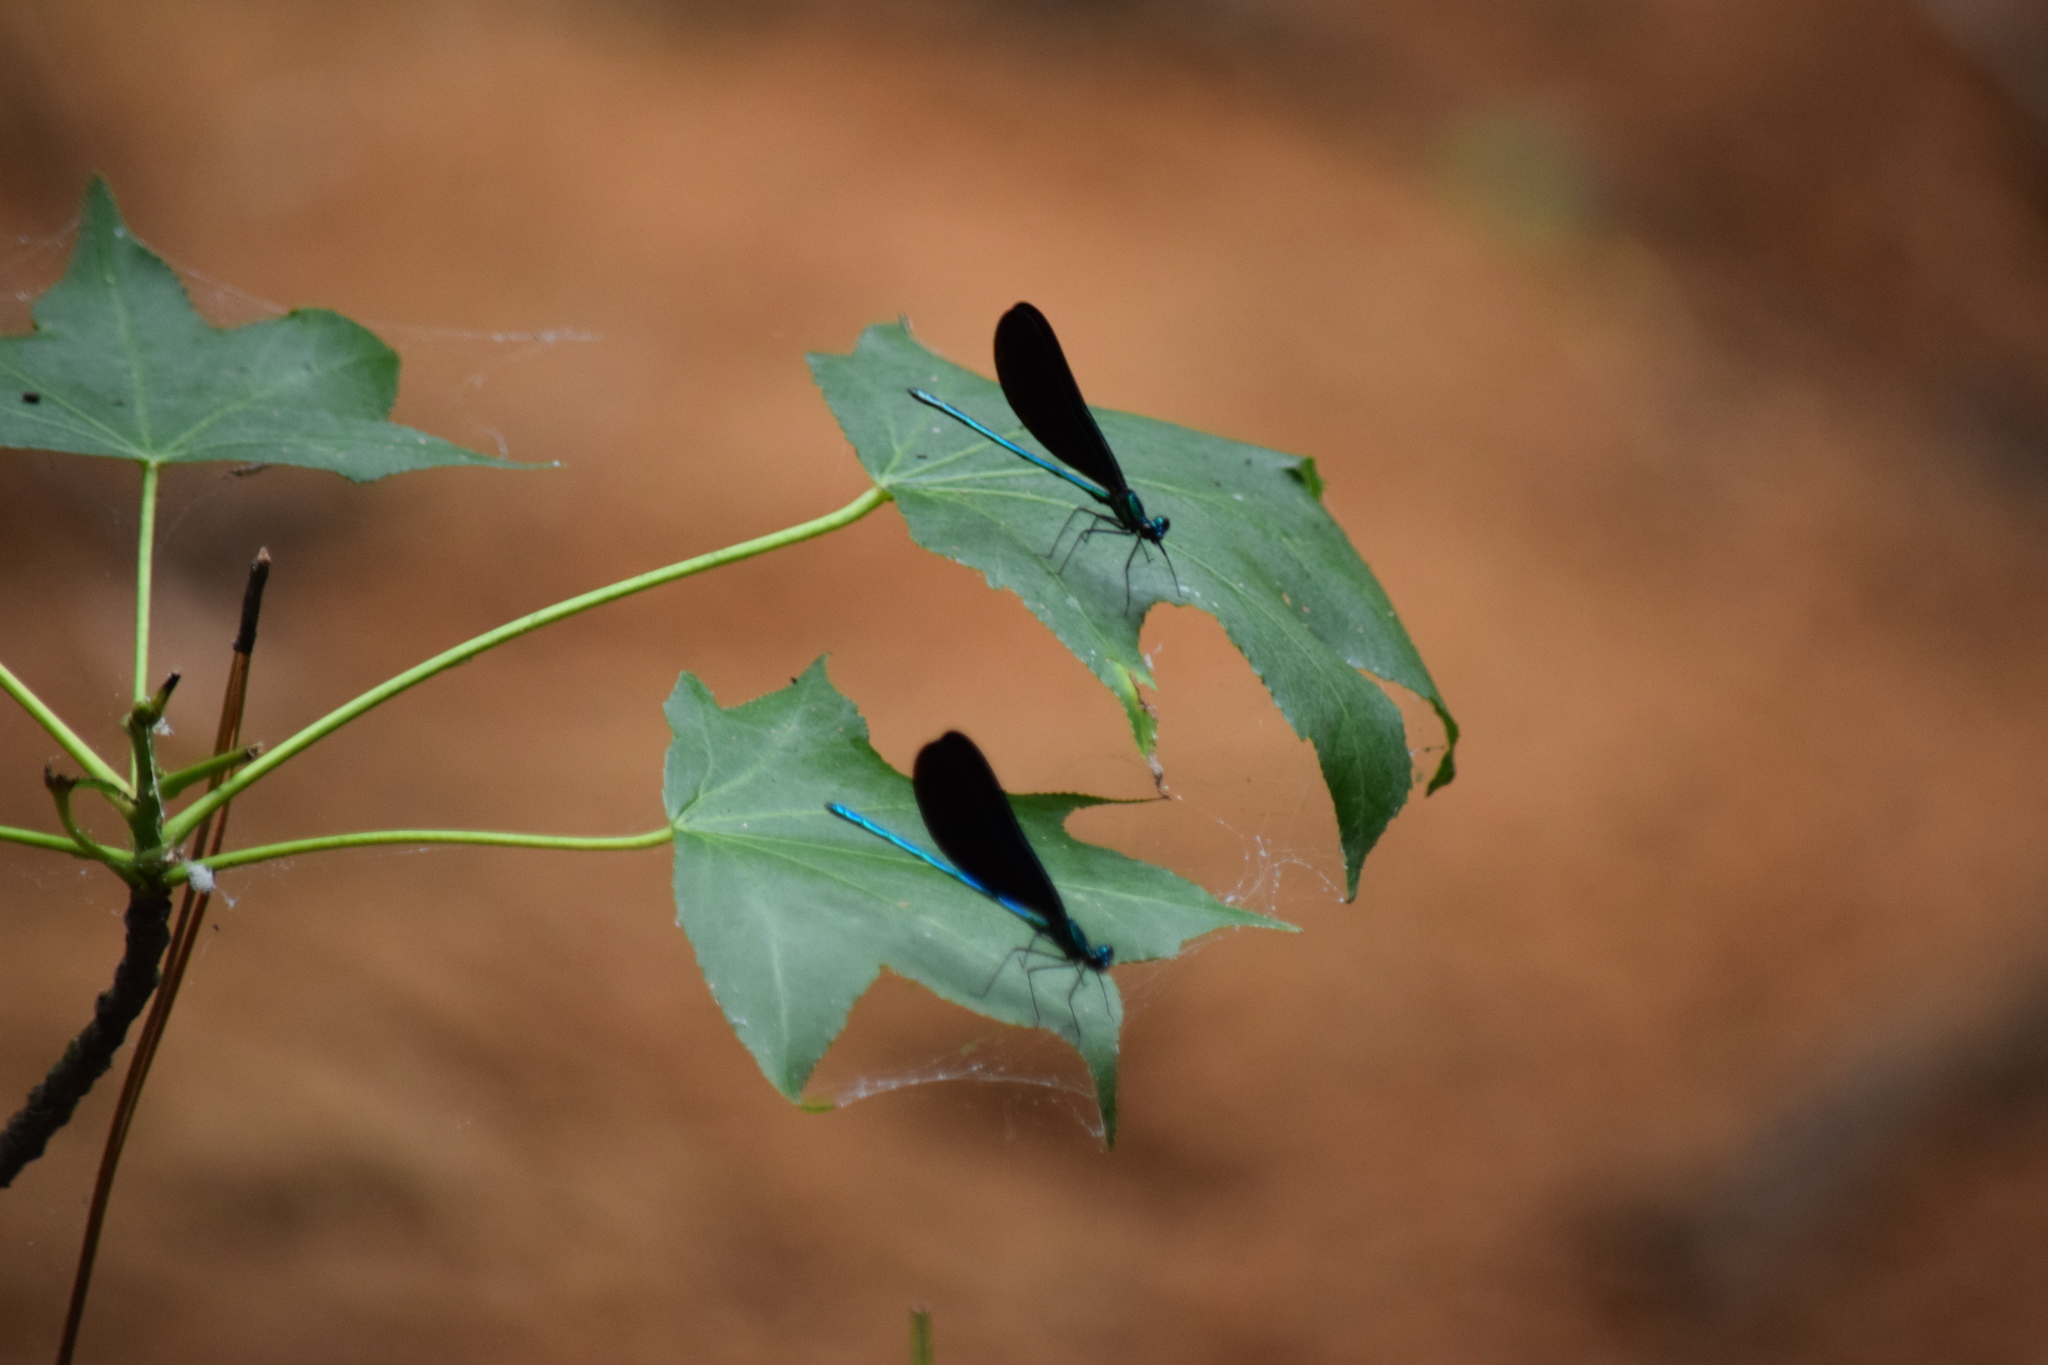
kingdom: Animalia
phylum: Arthropoda
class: Insecta
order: Odonata
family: Calopterygidae
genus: Calopteryx
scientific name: Calopteryx maculata
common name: Ebony jewelwing
